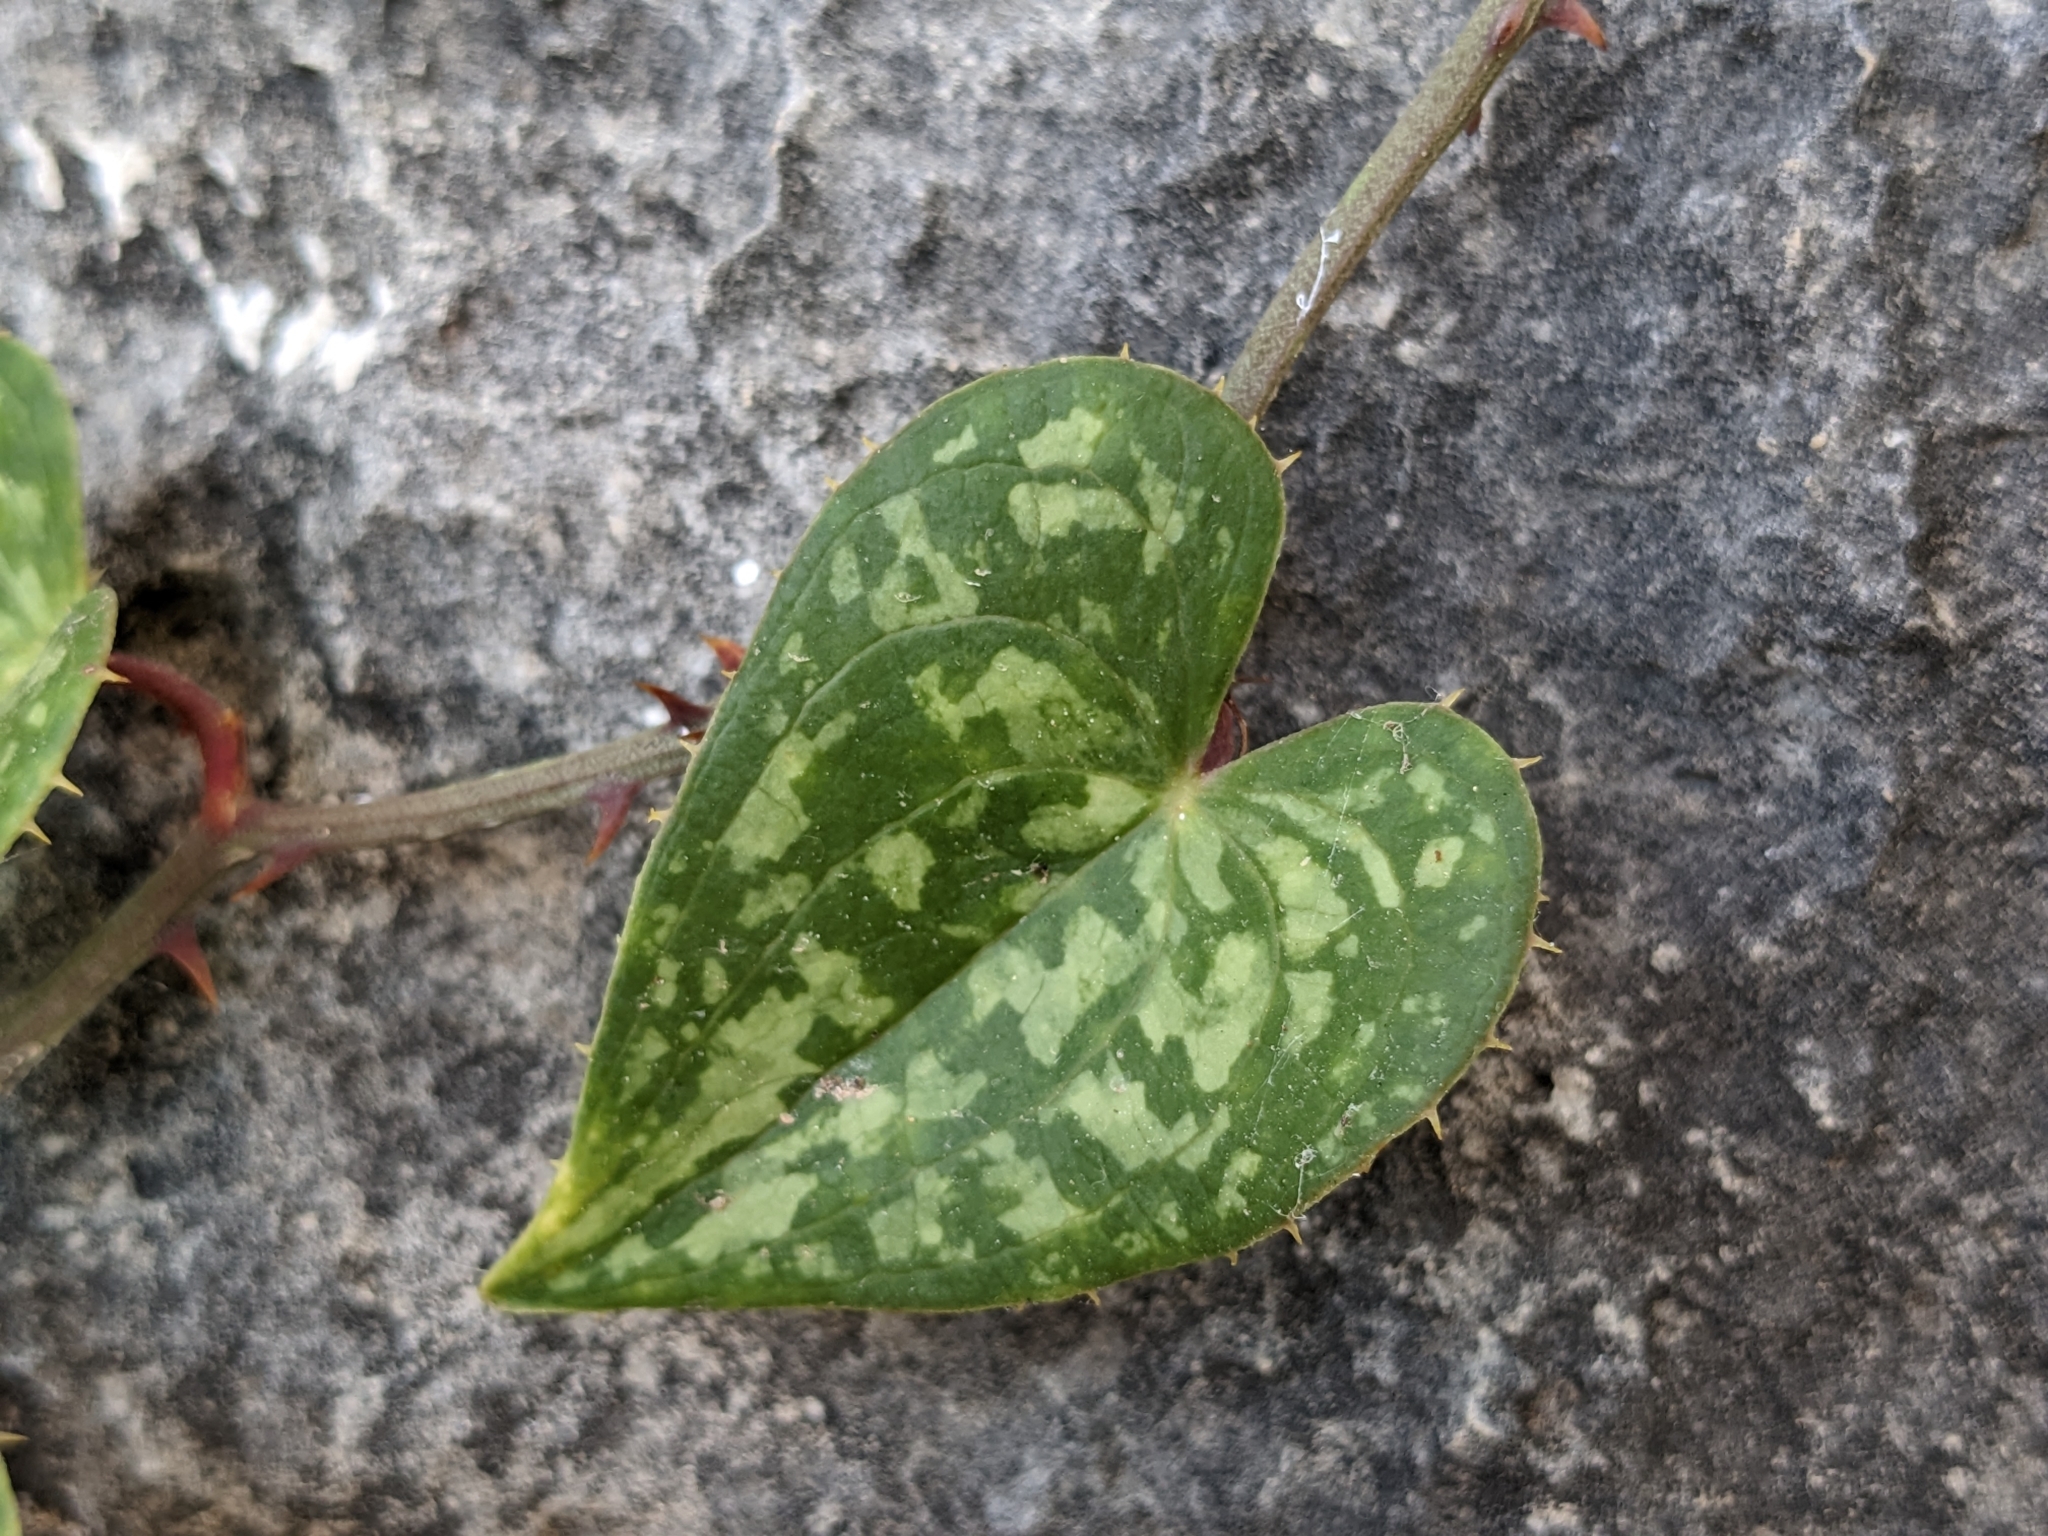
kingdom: Plantae
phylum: Tracheophyta
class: Liliopsida
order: Liliales
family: Smilacaceae
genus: Smilax
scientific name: Smilax aspera
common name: Common smilax
